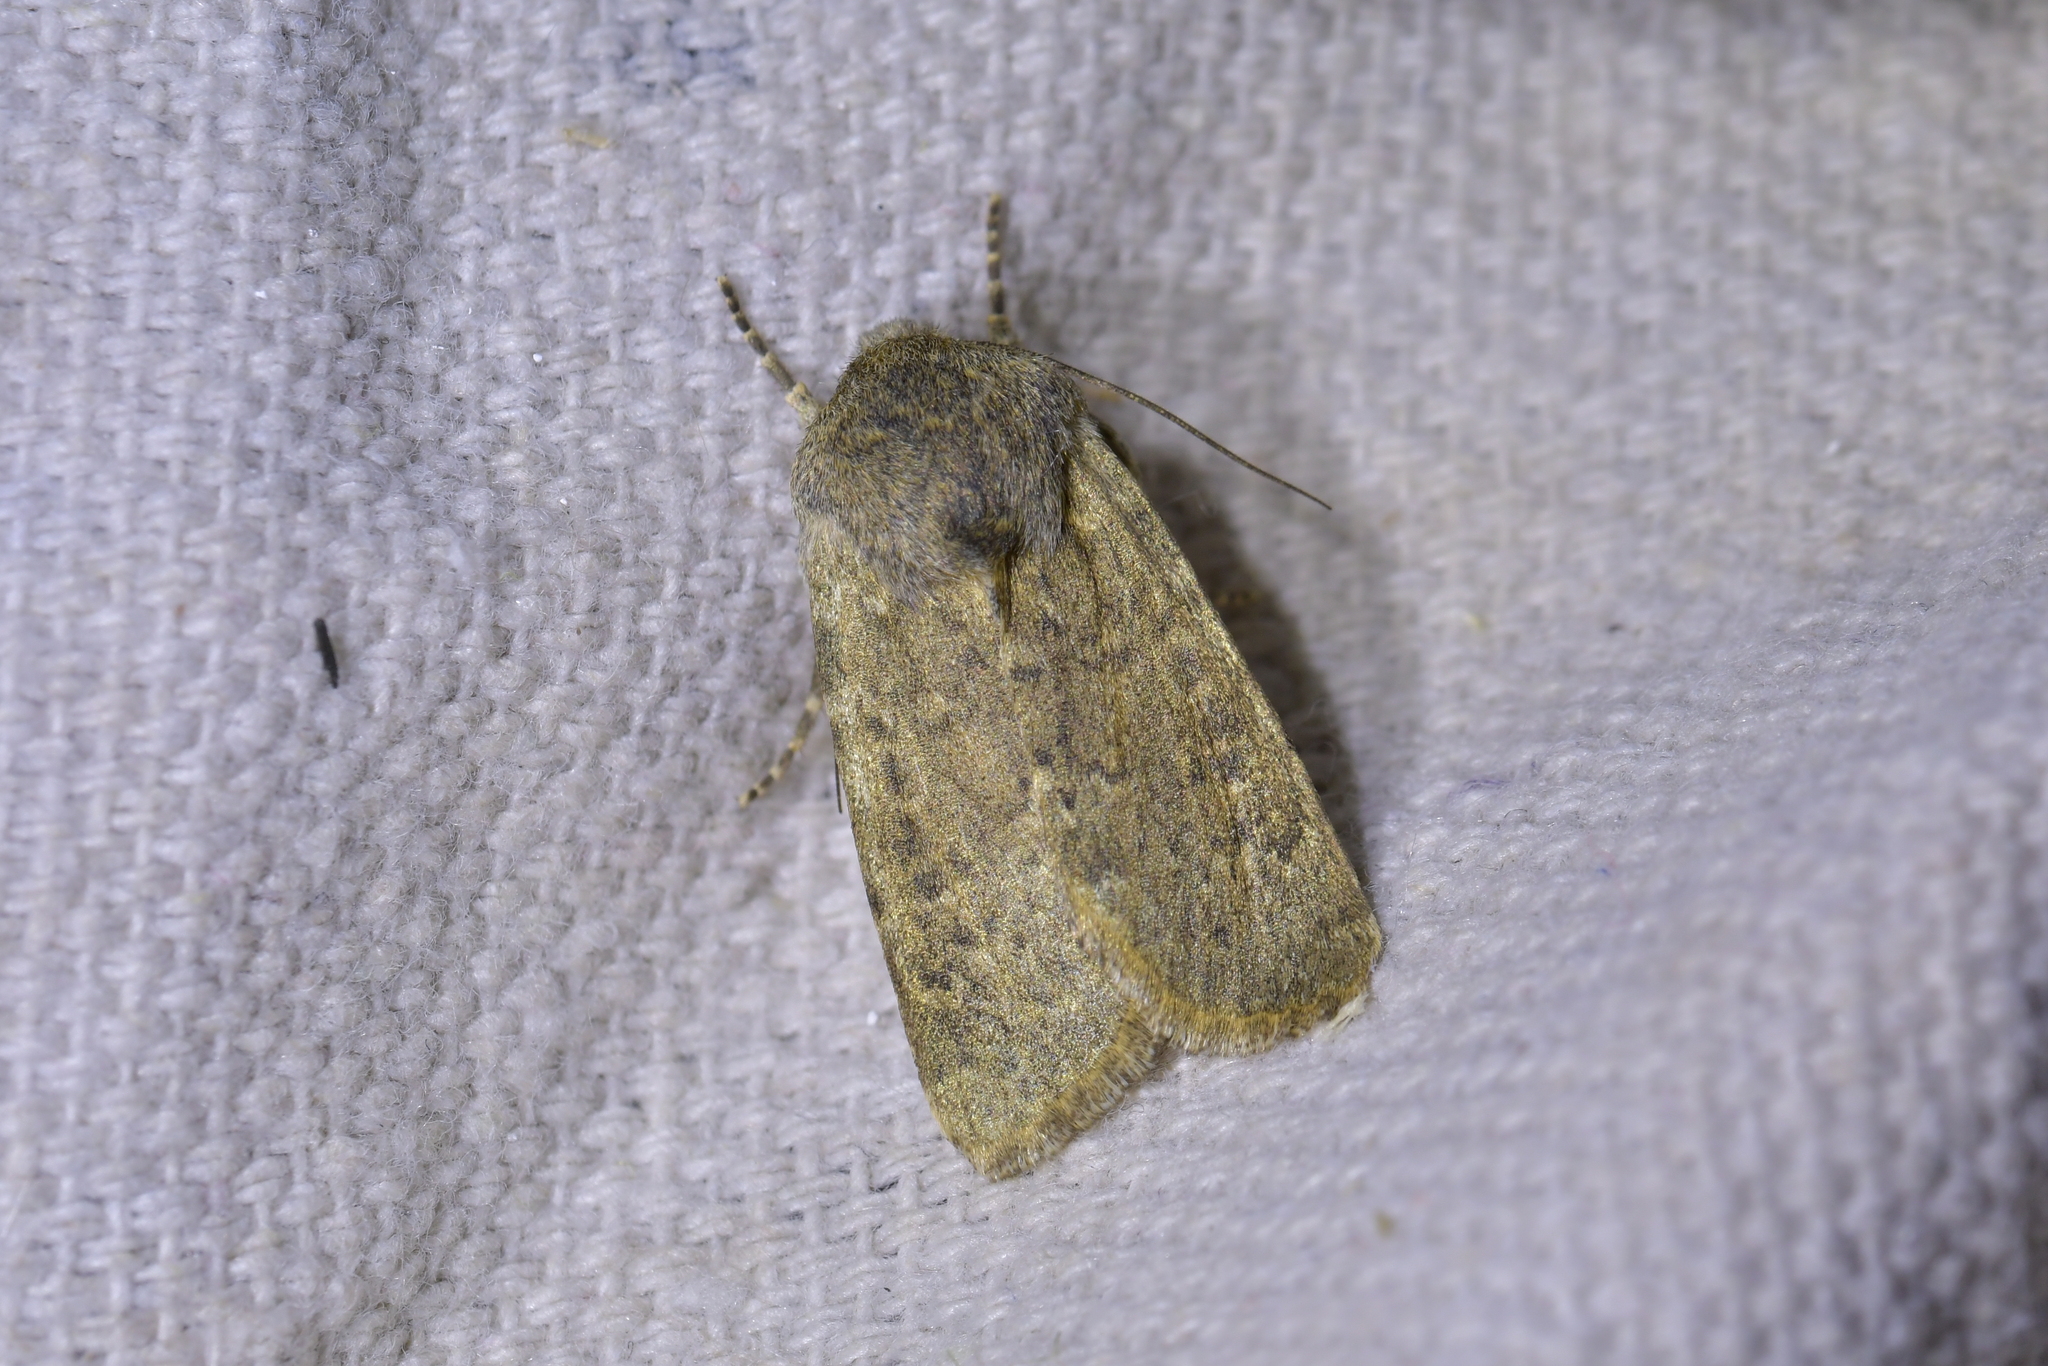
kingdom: Animalia
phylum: Arthropoda
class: Insecta
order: Lepidoptera
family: Noctuidae
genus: Physetica
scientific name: Physetica caerulea
